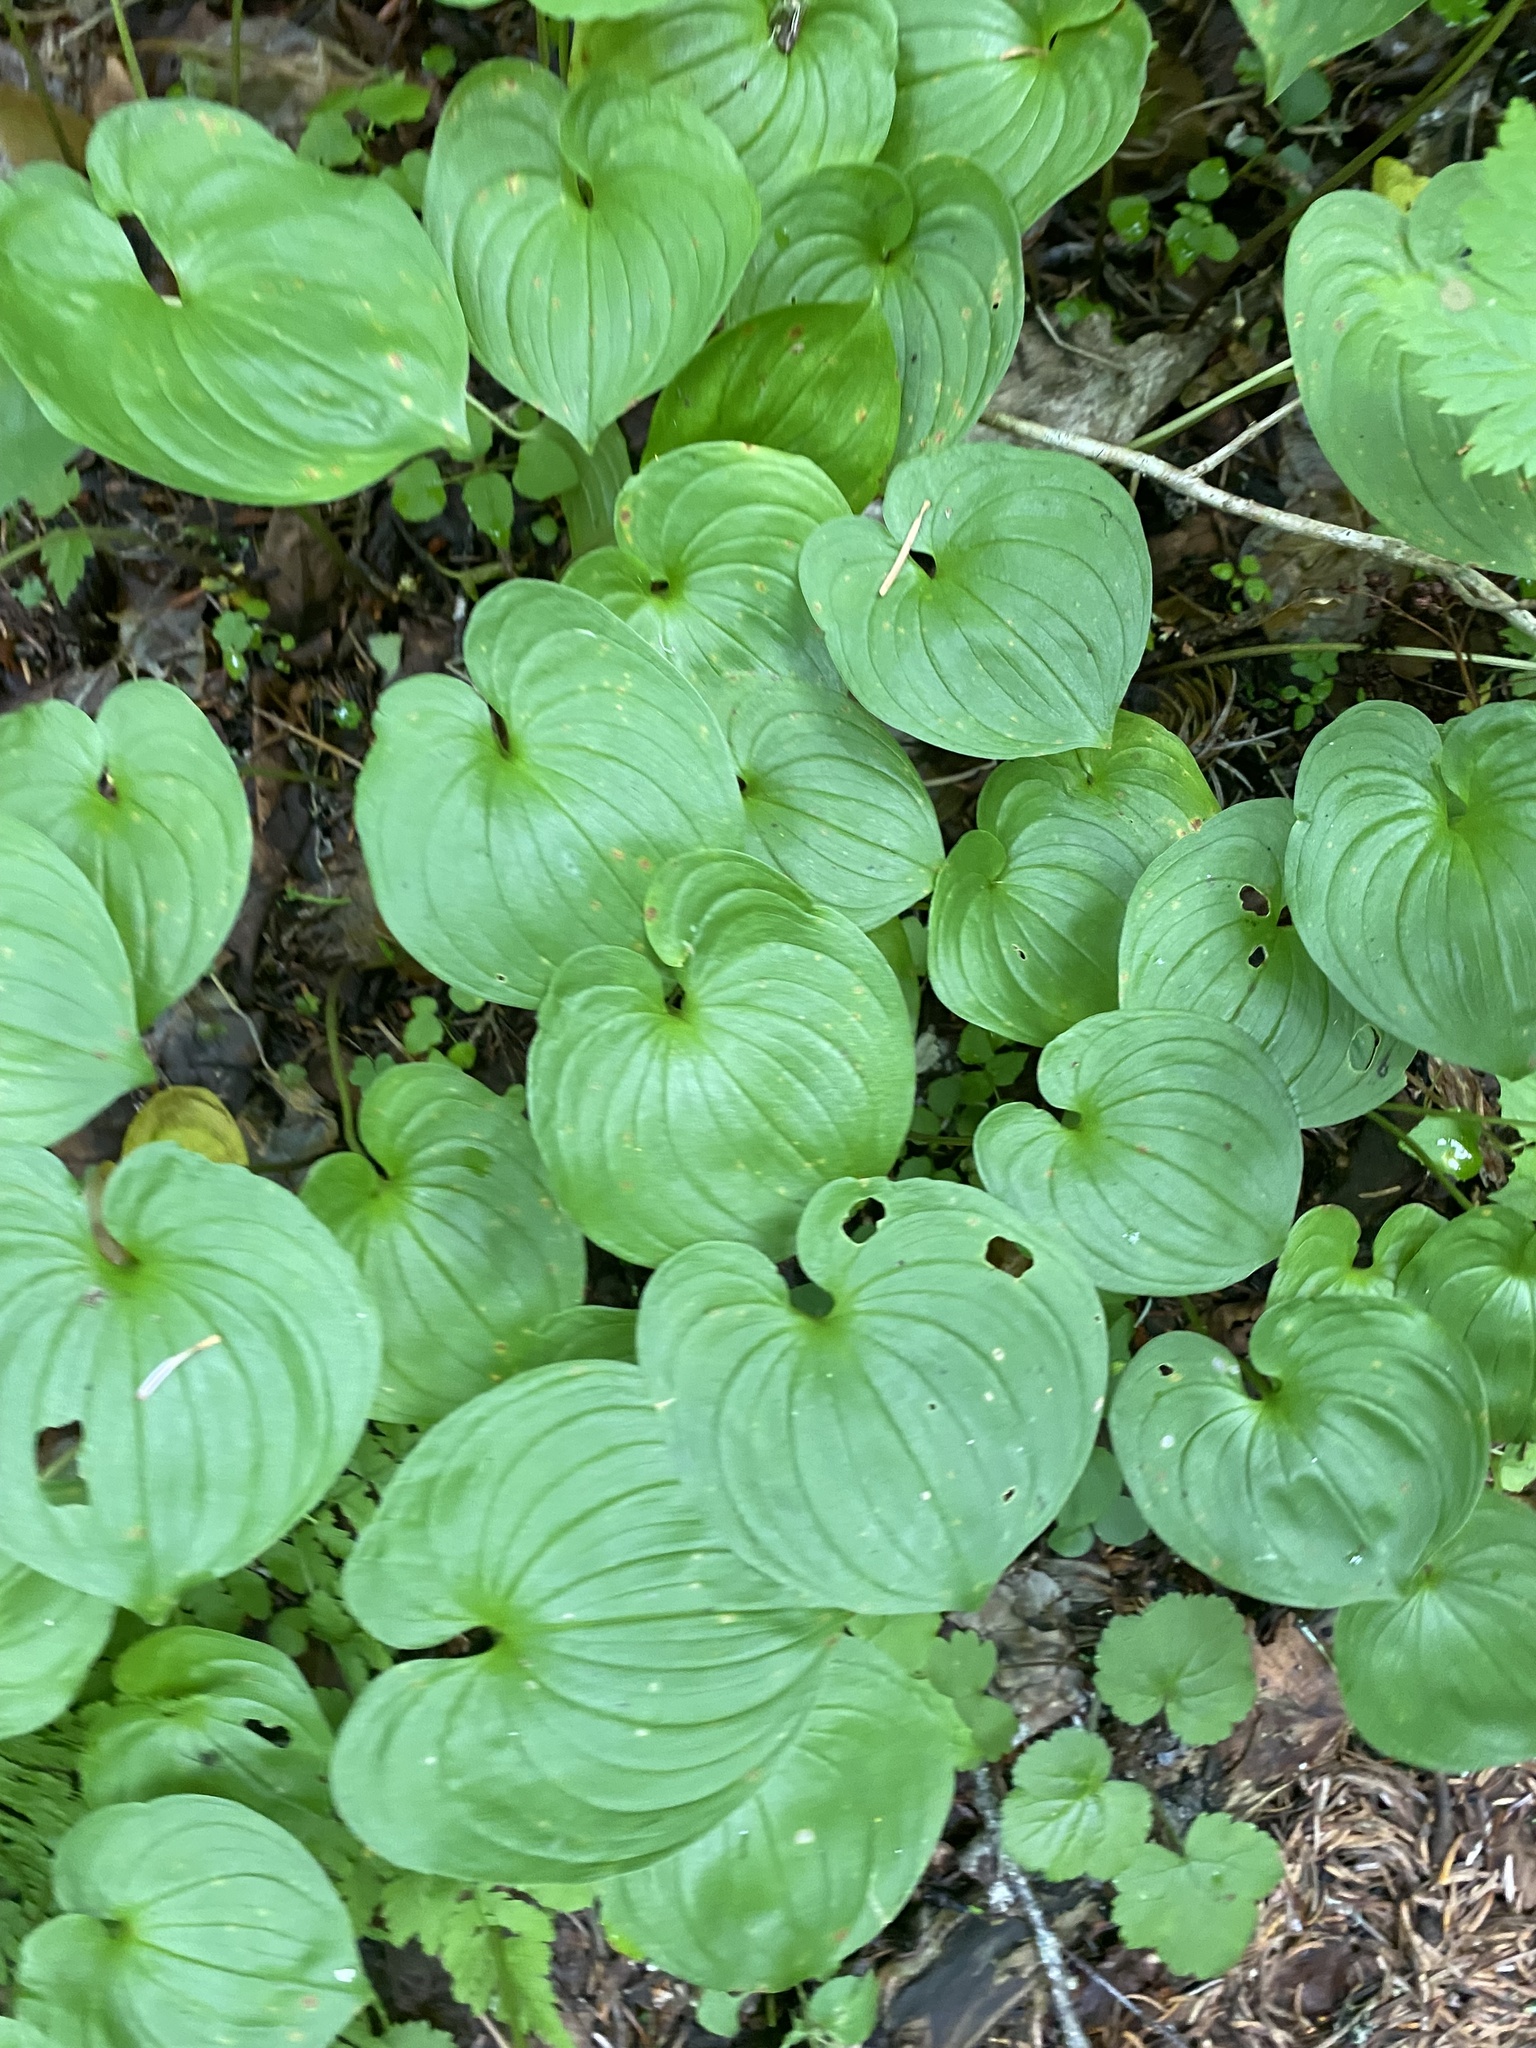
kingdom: Plantae
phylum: Tracheophyta
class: Liliopsida
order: Asparagales
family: Asparagaceae
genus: Maianthemum
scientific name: Maianthemum dilatatum
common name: False lily-of-the-valley
